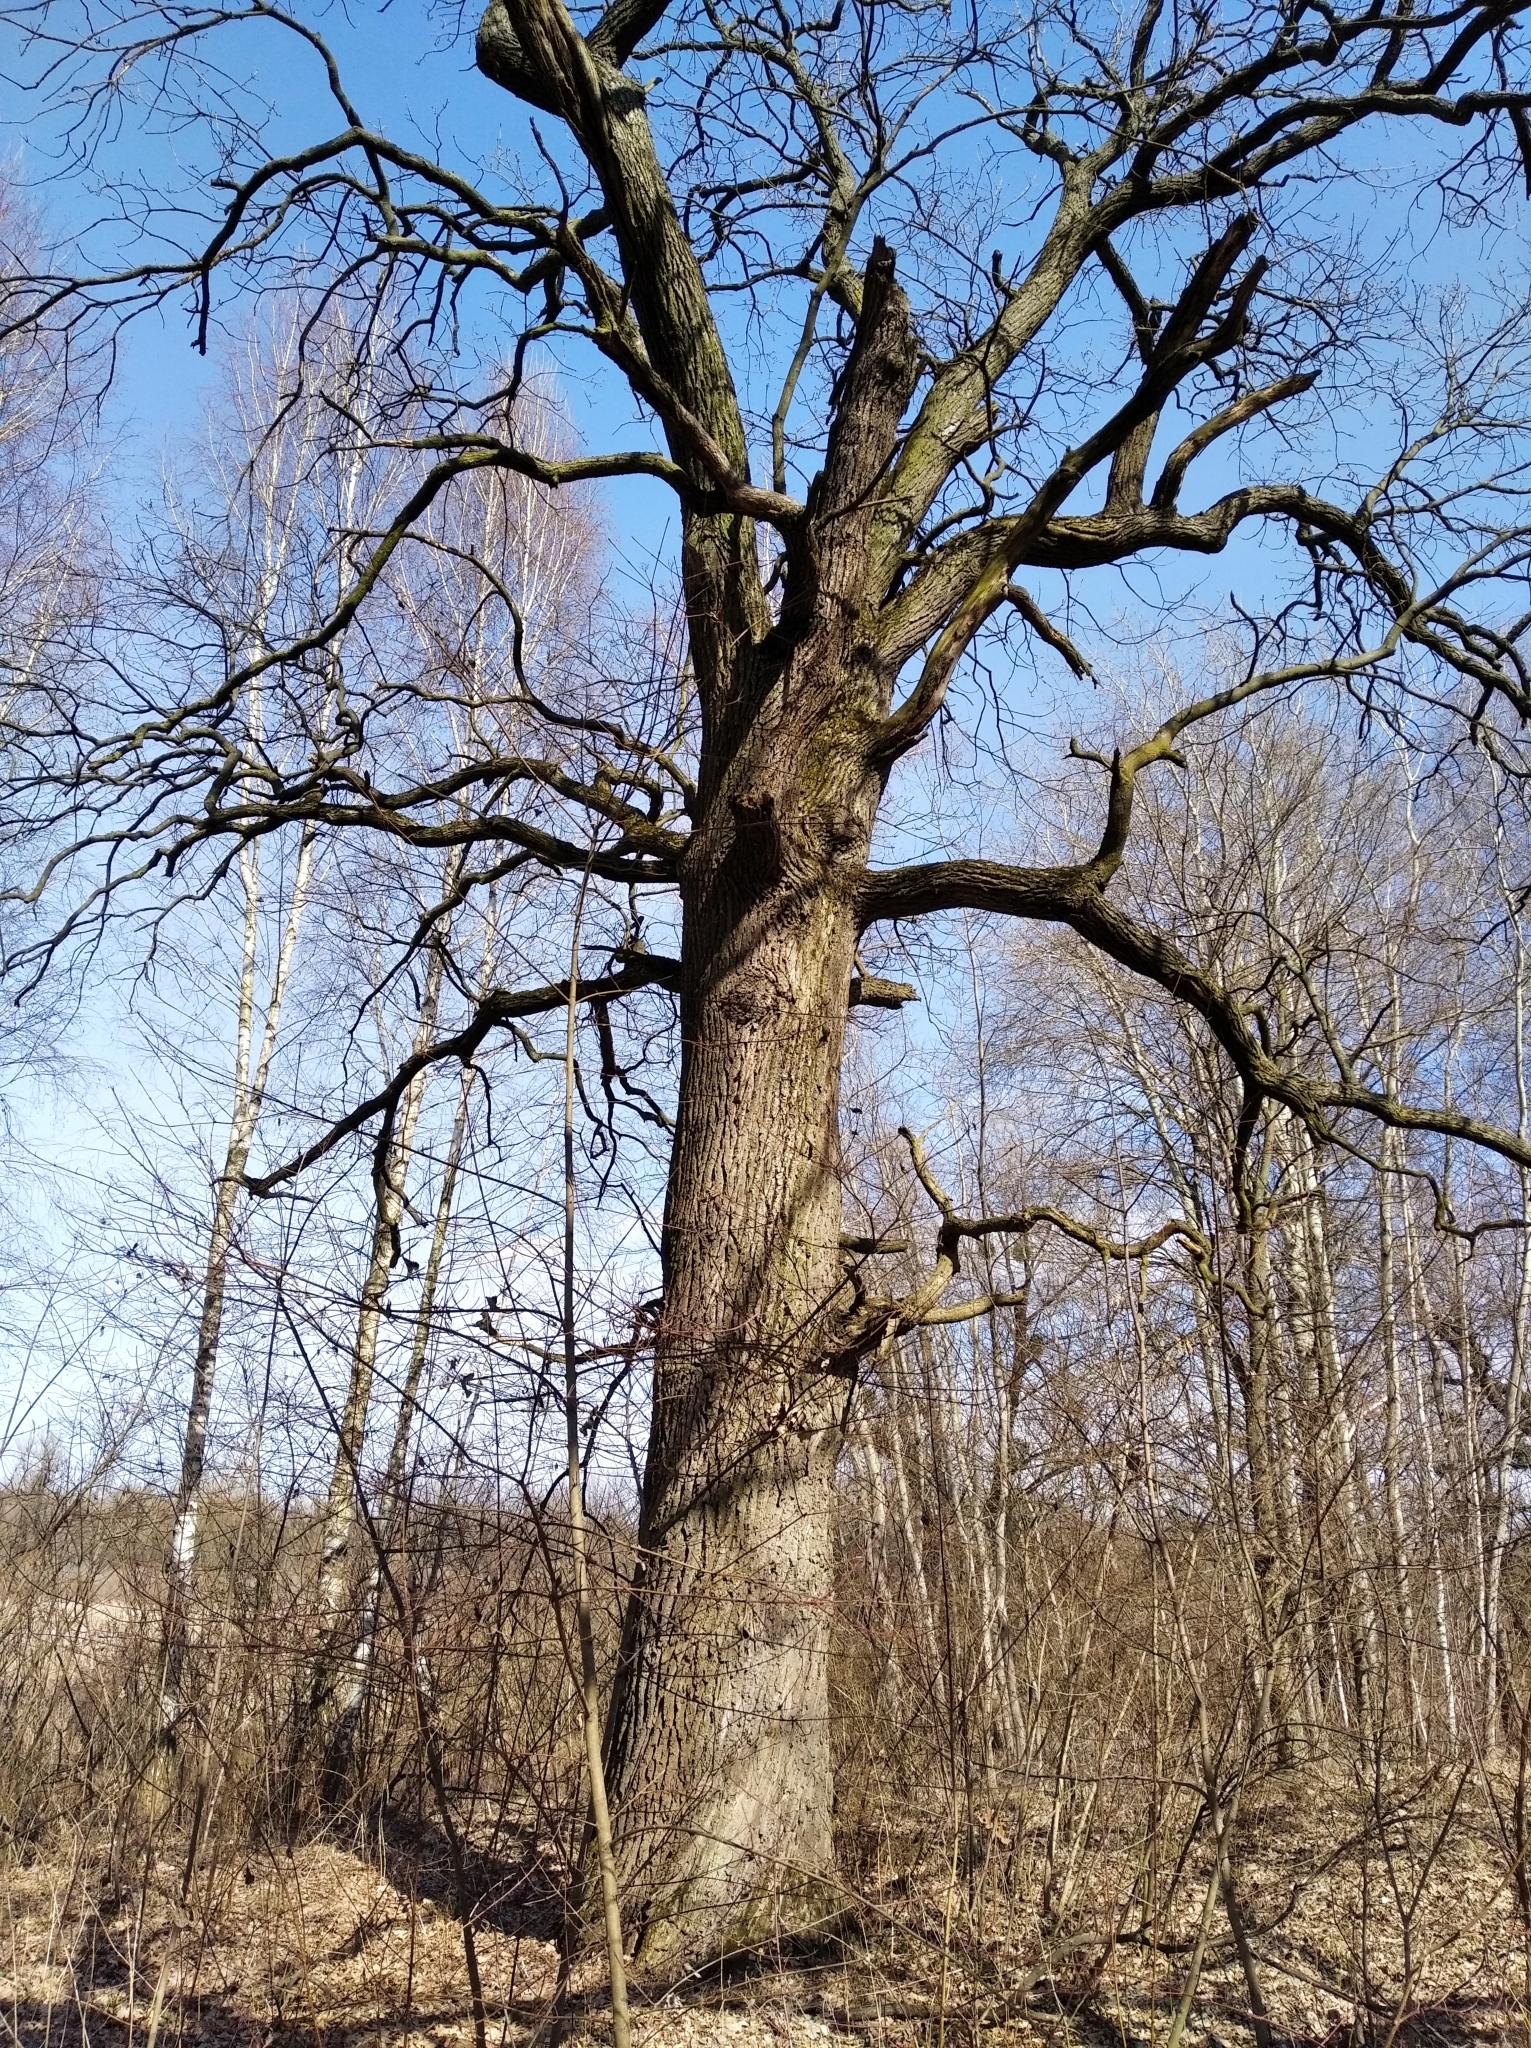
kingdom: Plantae
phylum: Tracheophyta
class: Magnoliopsida
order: Fagales
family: Fagaceae
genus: Quercus
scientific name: Quercus robur
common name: Pedunculate oak
